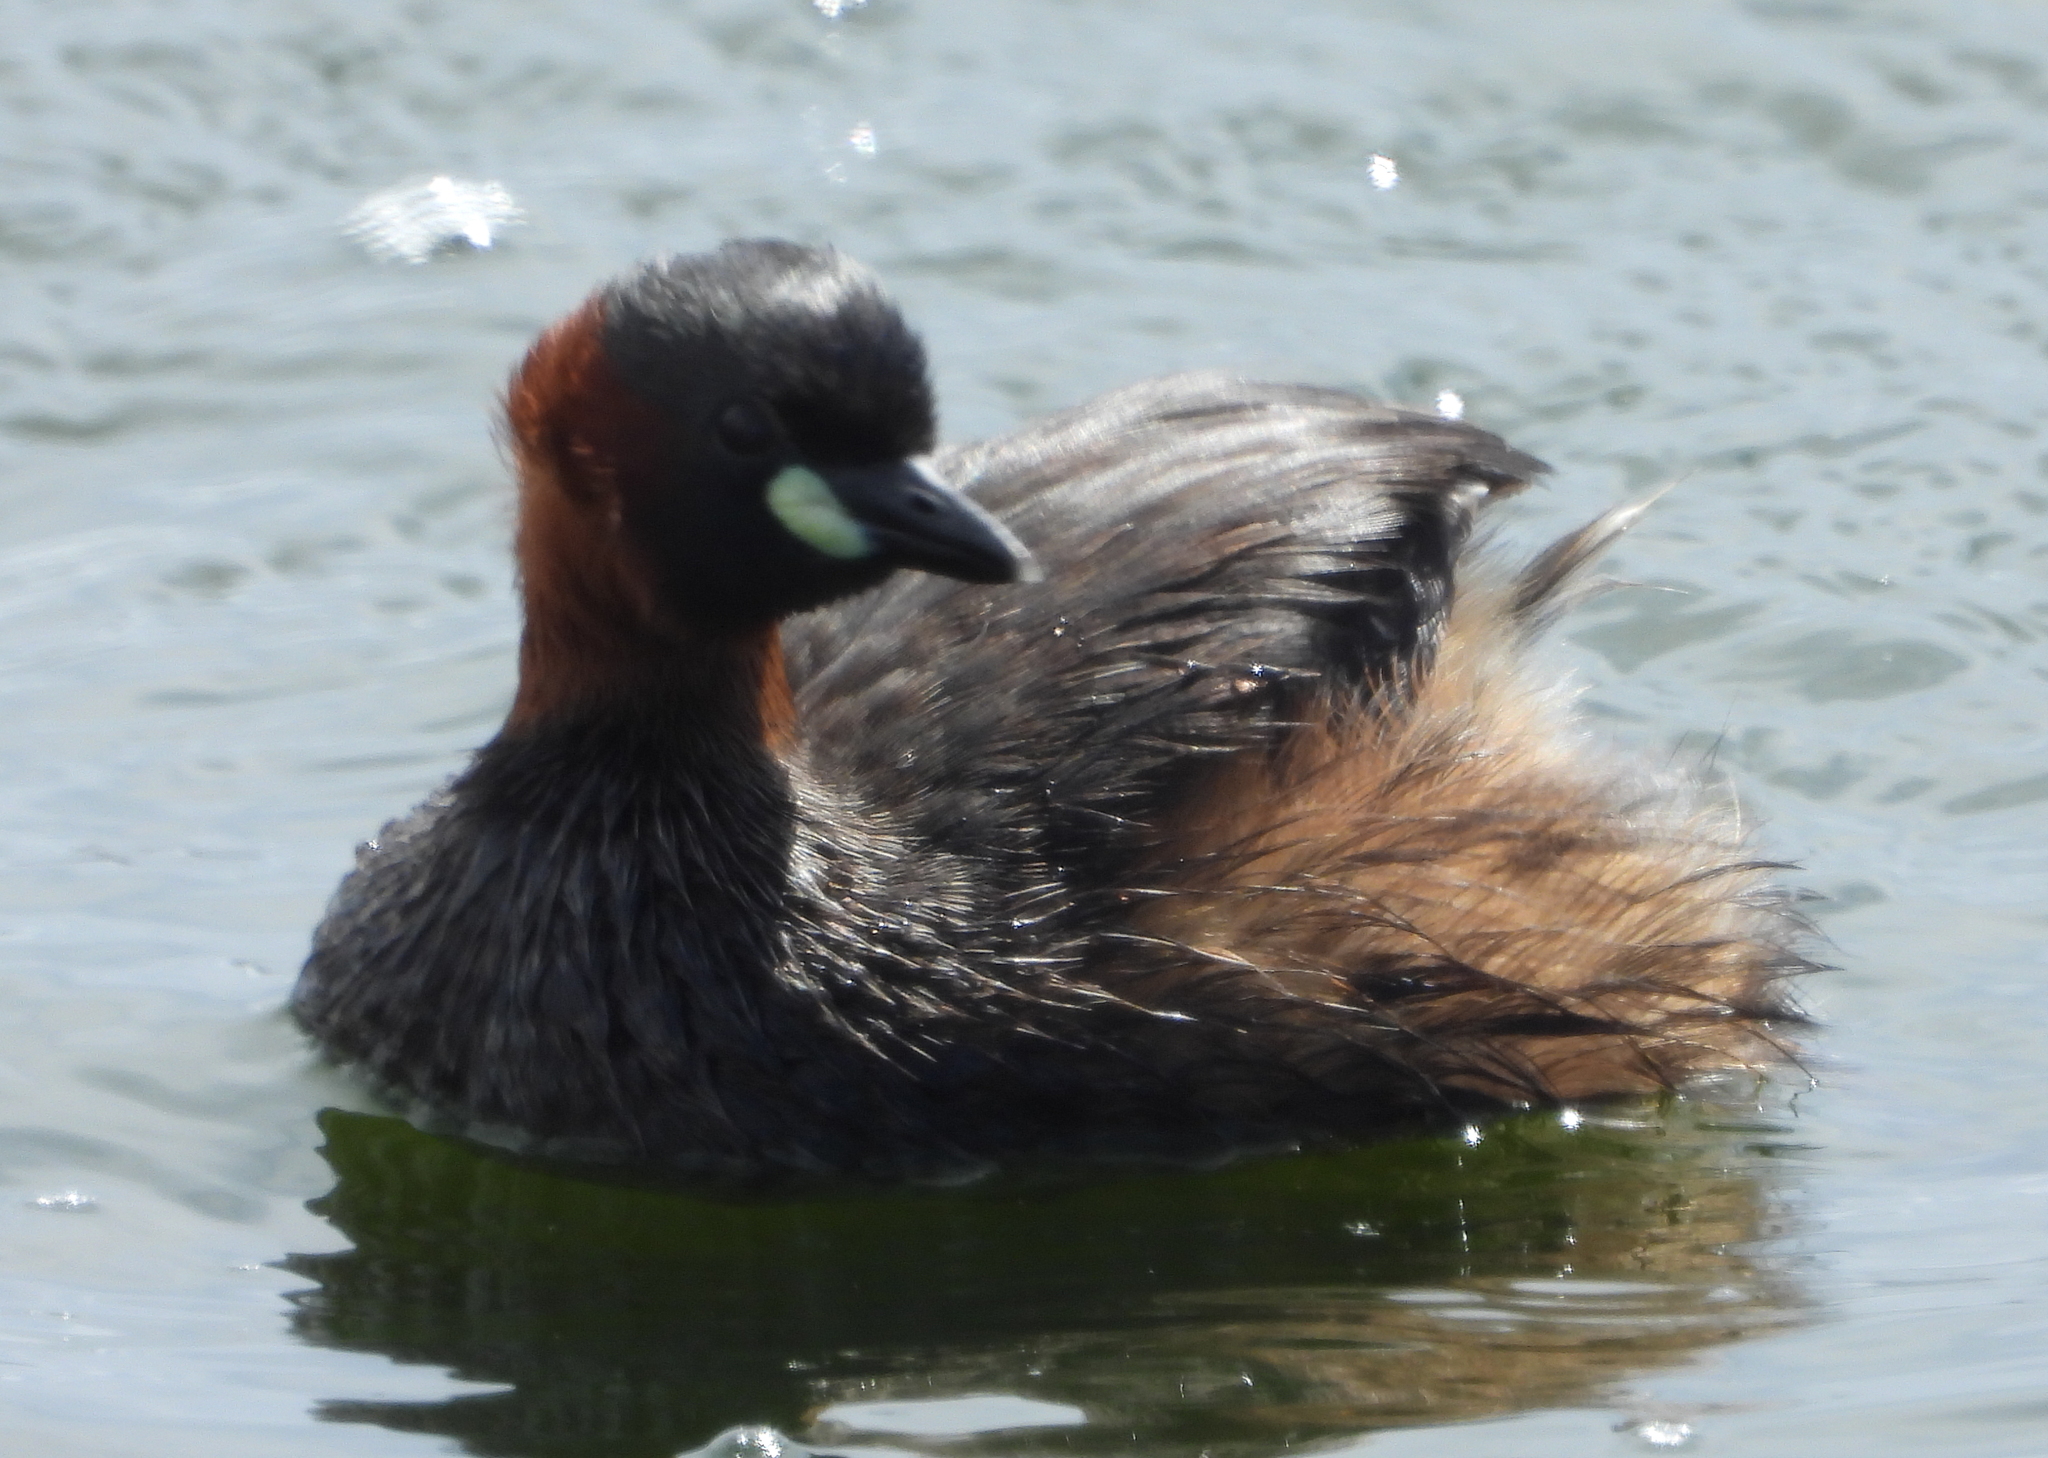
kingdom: Animalia
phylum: Chordata
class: Aves
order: Podicipediformes
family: Podicipedidae
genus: Tachybaptus
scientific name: Tachybaptus ruficollis
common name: Little grebe
